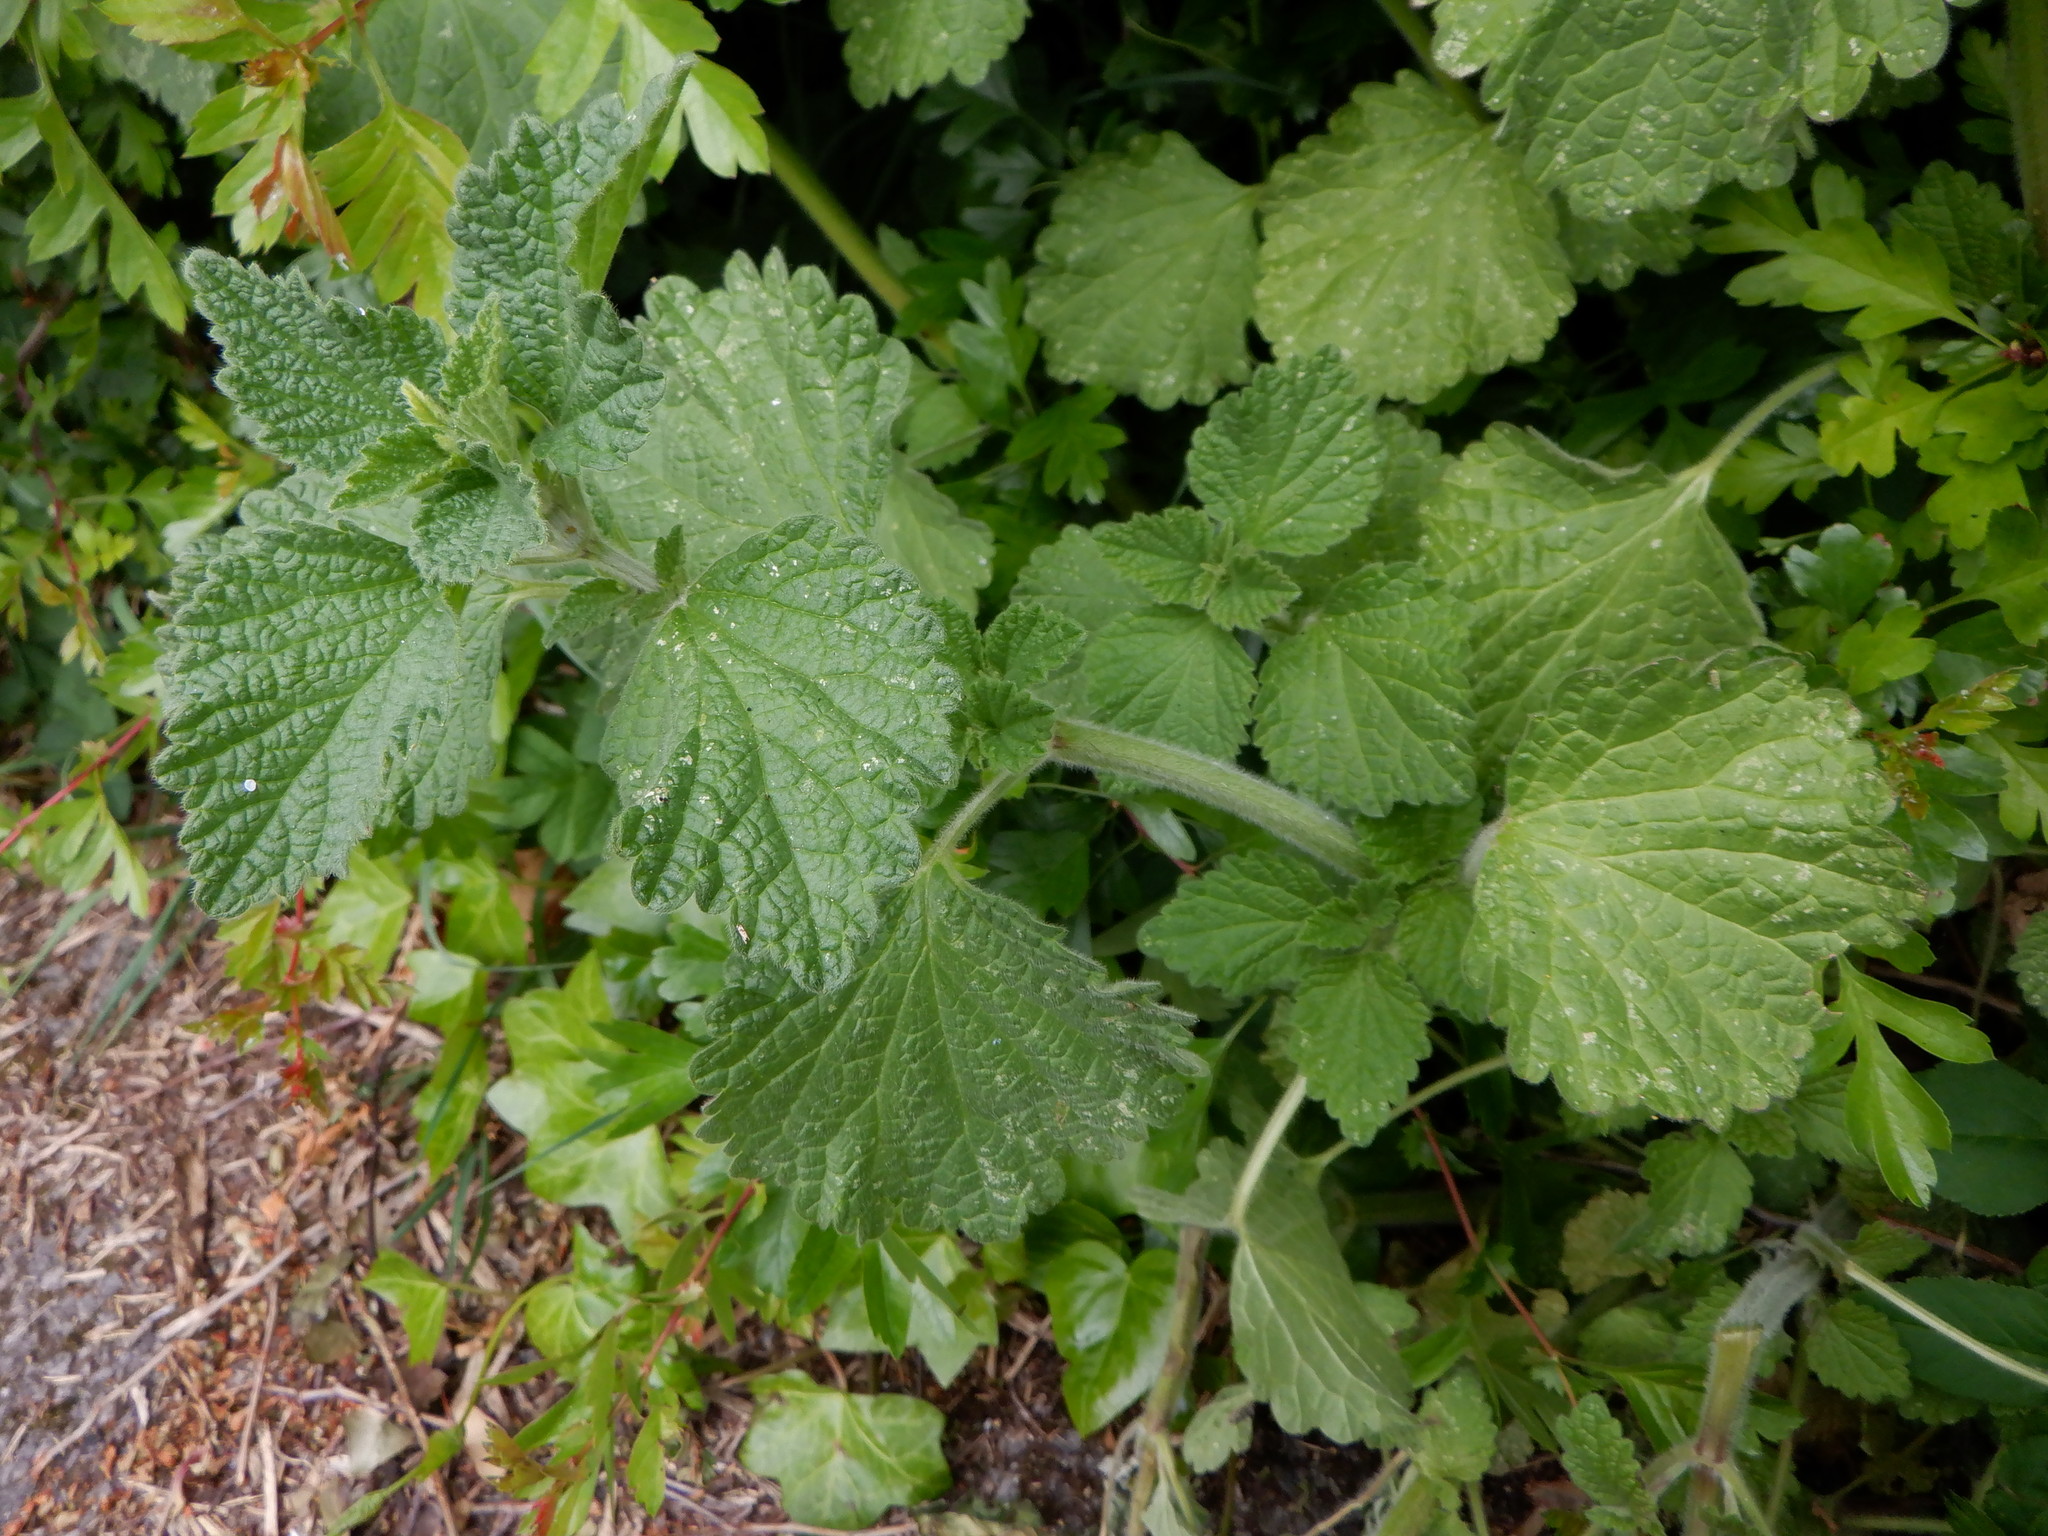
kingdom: Plantae
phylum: Tracheophyta
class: Magnoliopsida
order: Lamiales
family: Lamiaceae
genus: Ballota
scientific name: Ballota nigra
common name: Black horehound
